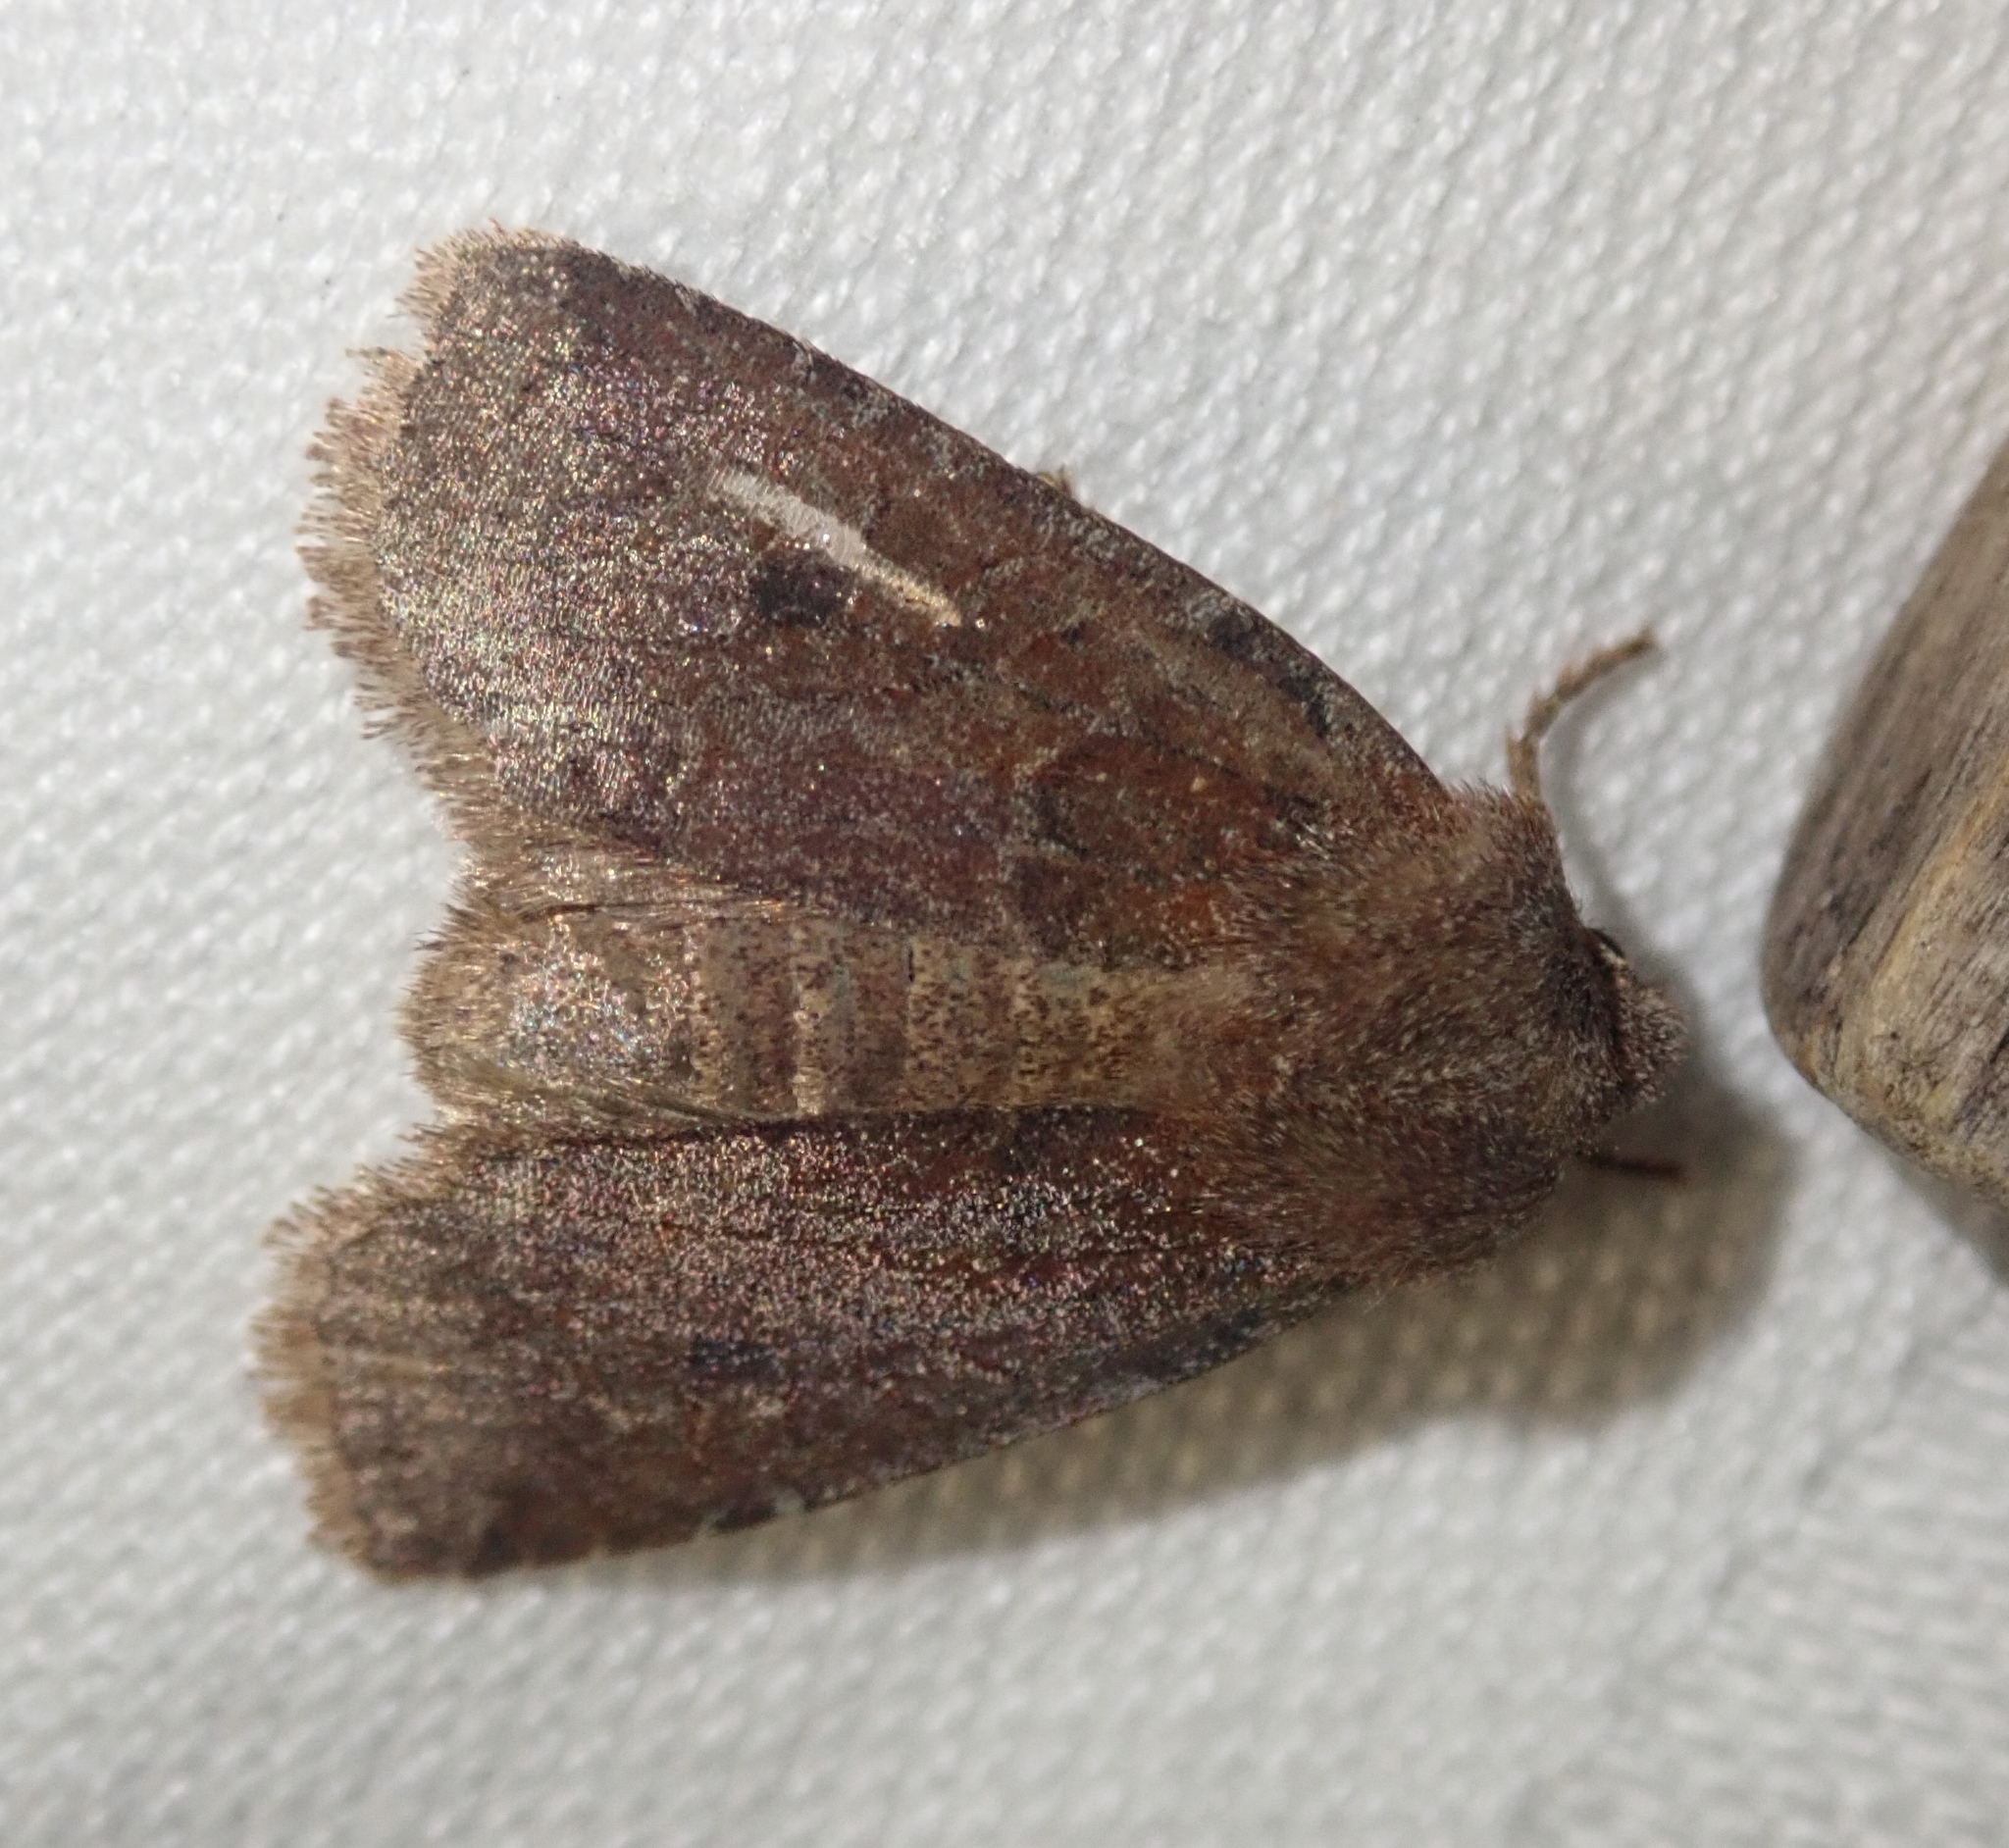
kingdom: Animalia
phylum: Arthropoda
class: Insecta
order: Lepidoptera
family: Noctuidae
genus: Conistra
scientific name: Conistra vaccinii
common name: Chestnut
